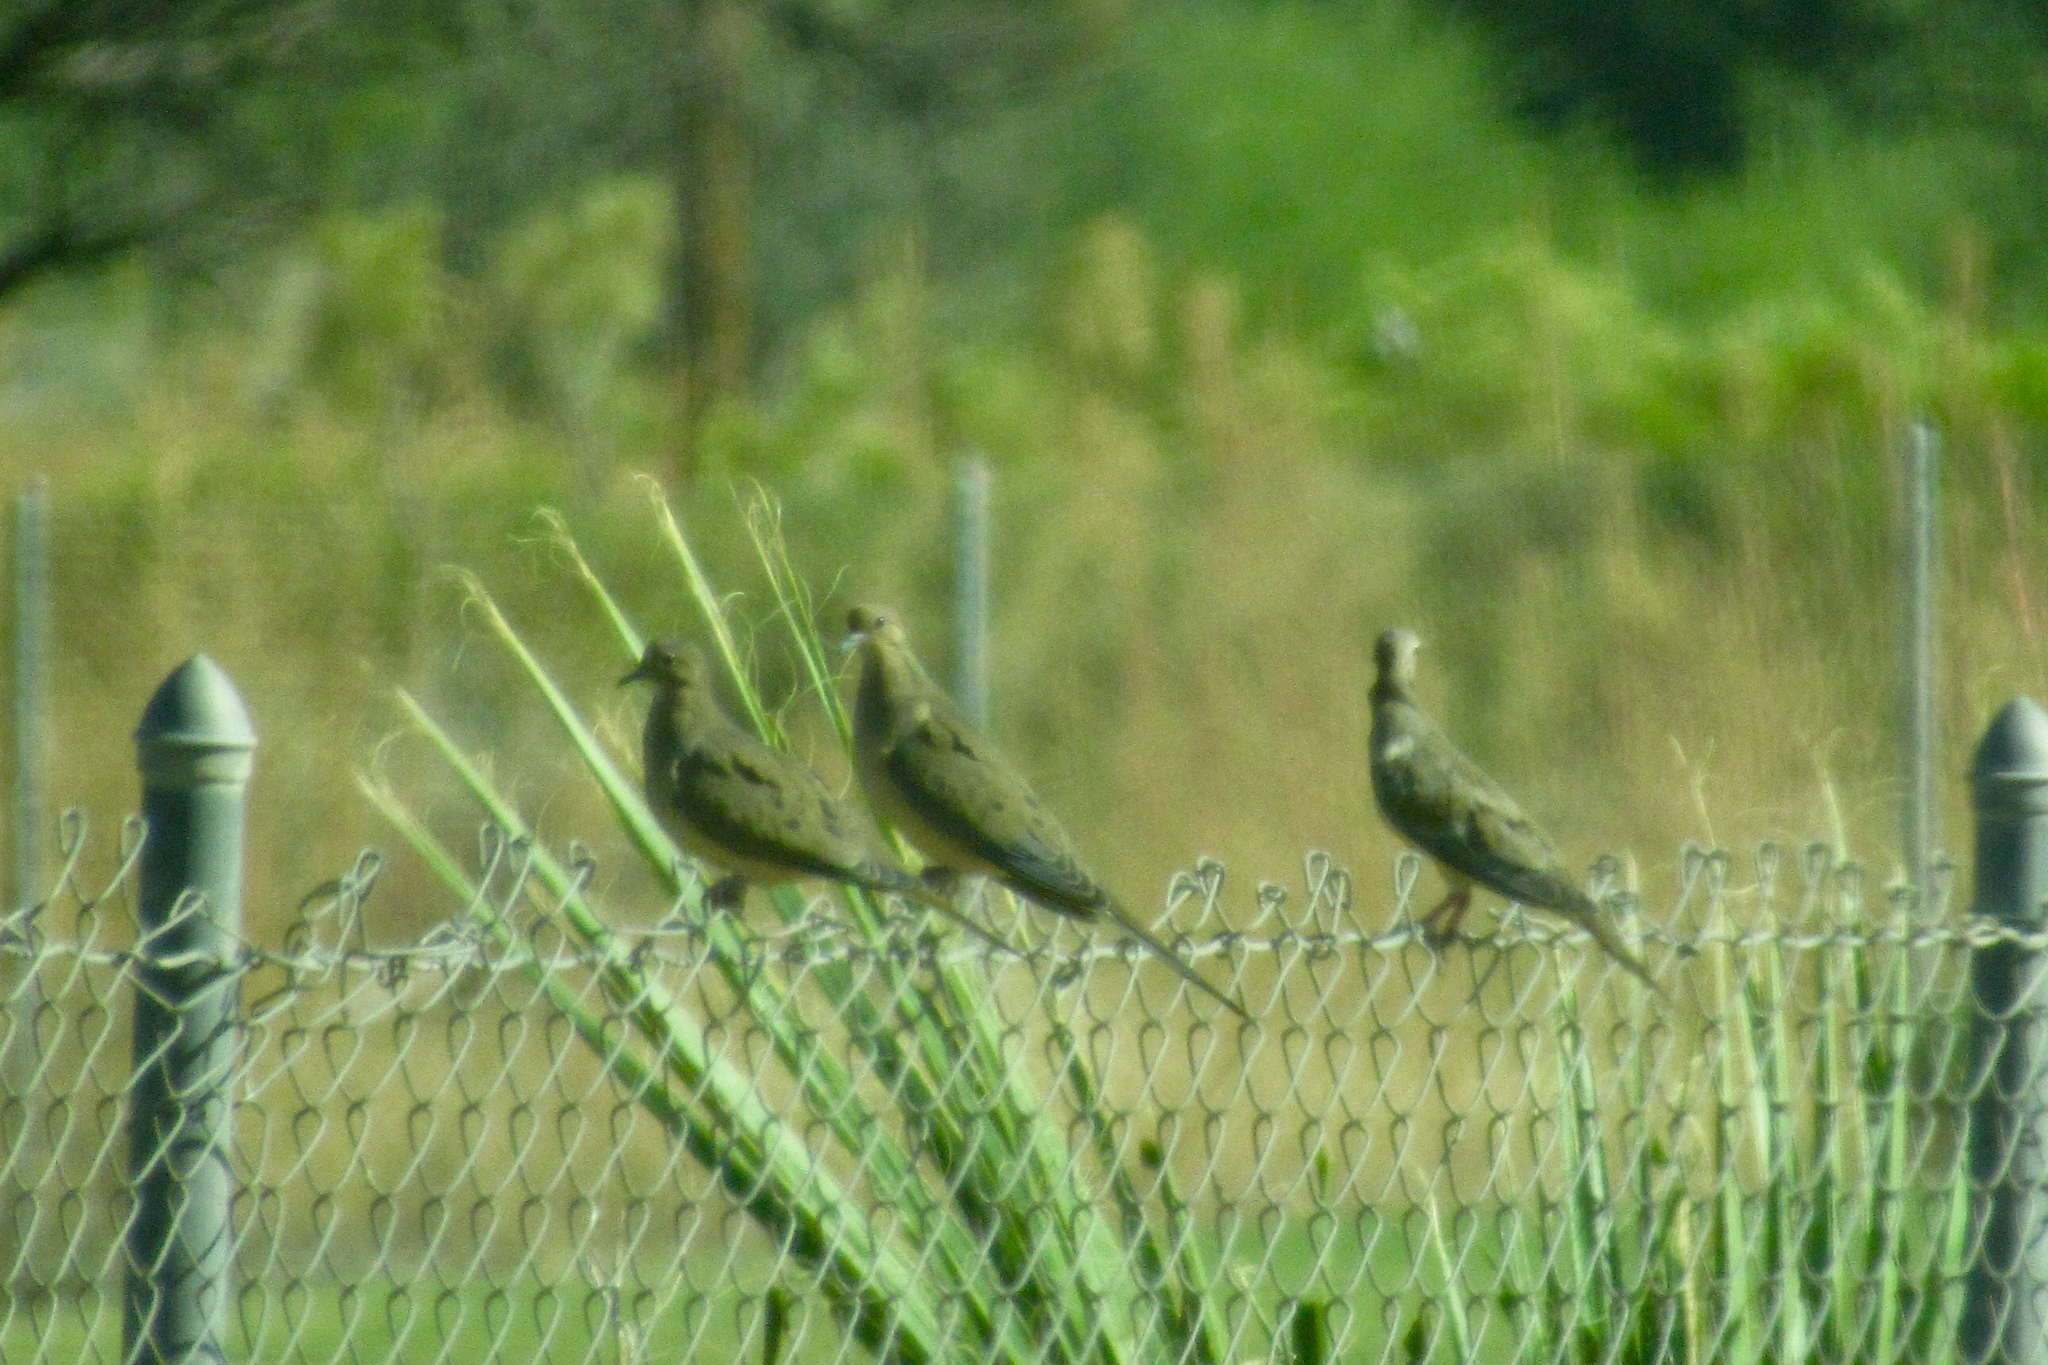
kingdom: Animalia
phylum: Chordata
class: Aves
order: Columbiformes
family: Columbidae
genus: Zenaida
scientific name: Zenaida macroura
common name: Mourning dove
